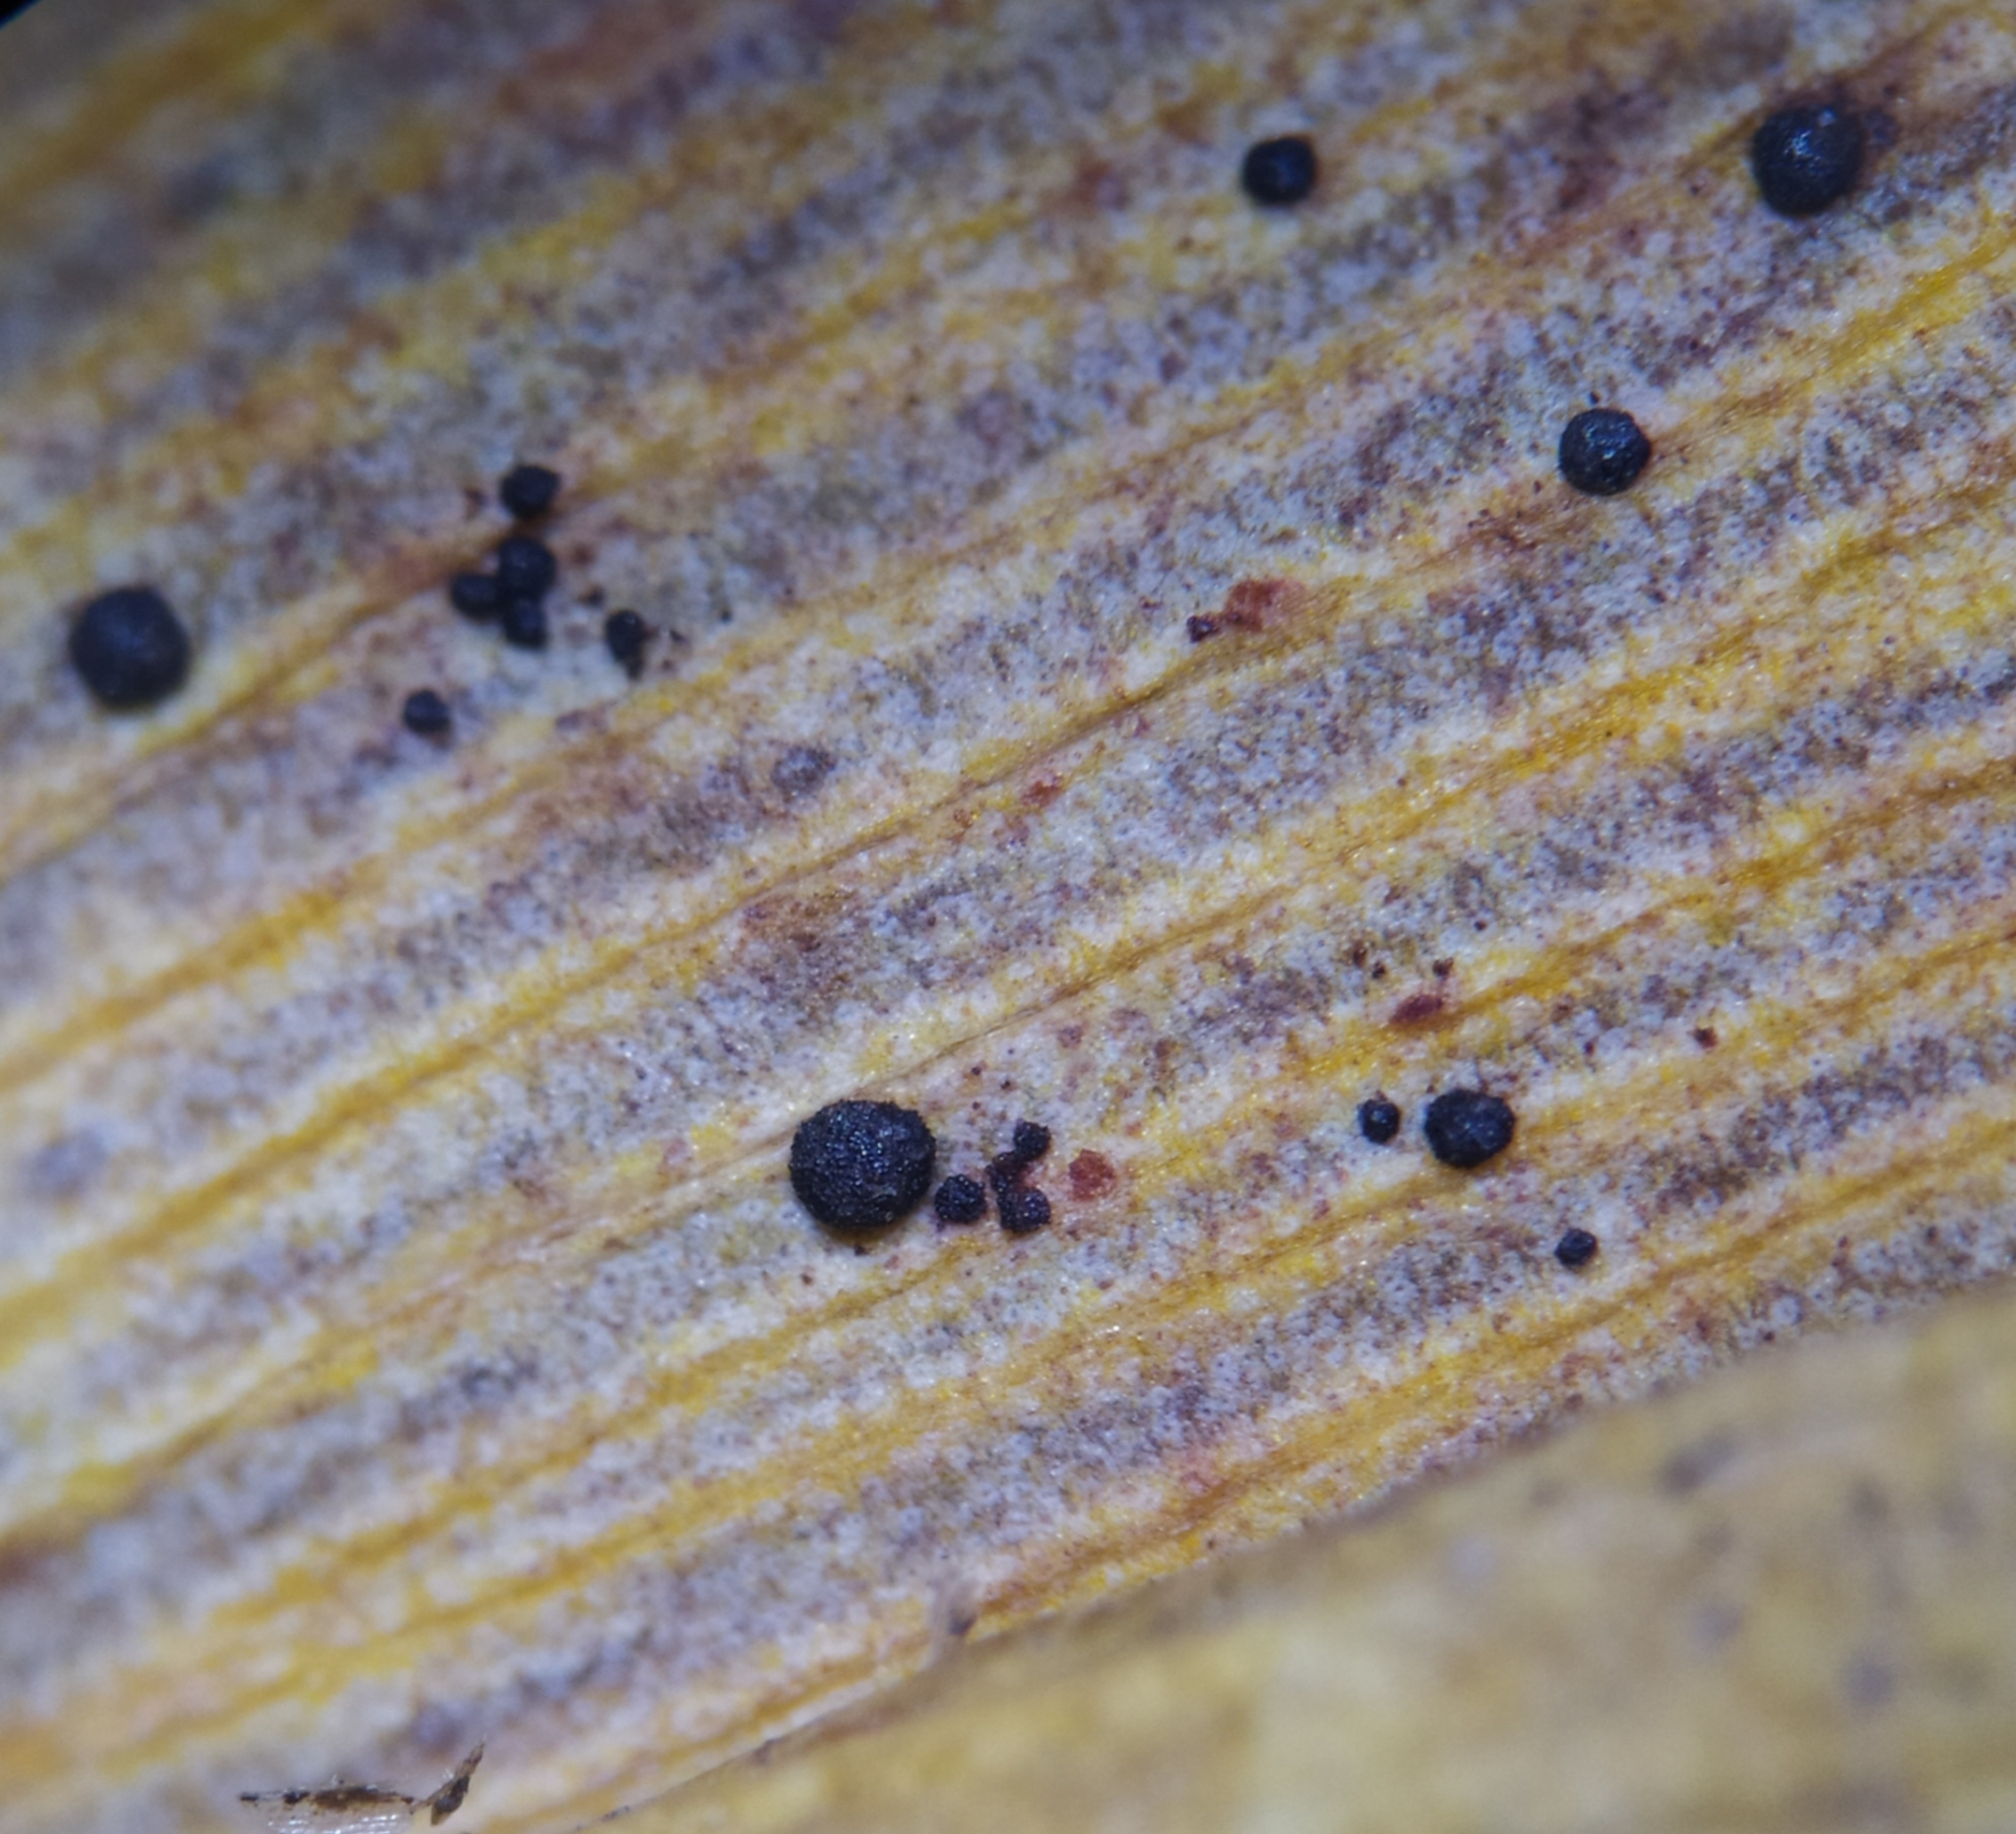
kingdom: Fungi
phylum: Basidiomycota
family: Bartheletiaceae
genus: Bartheletia
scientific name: Bartheletia paradoxa
